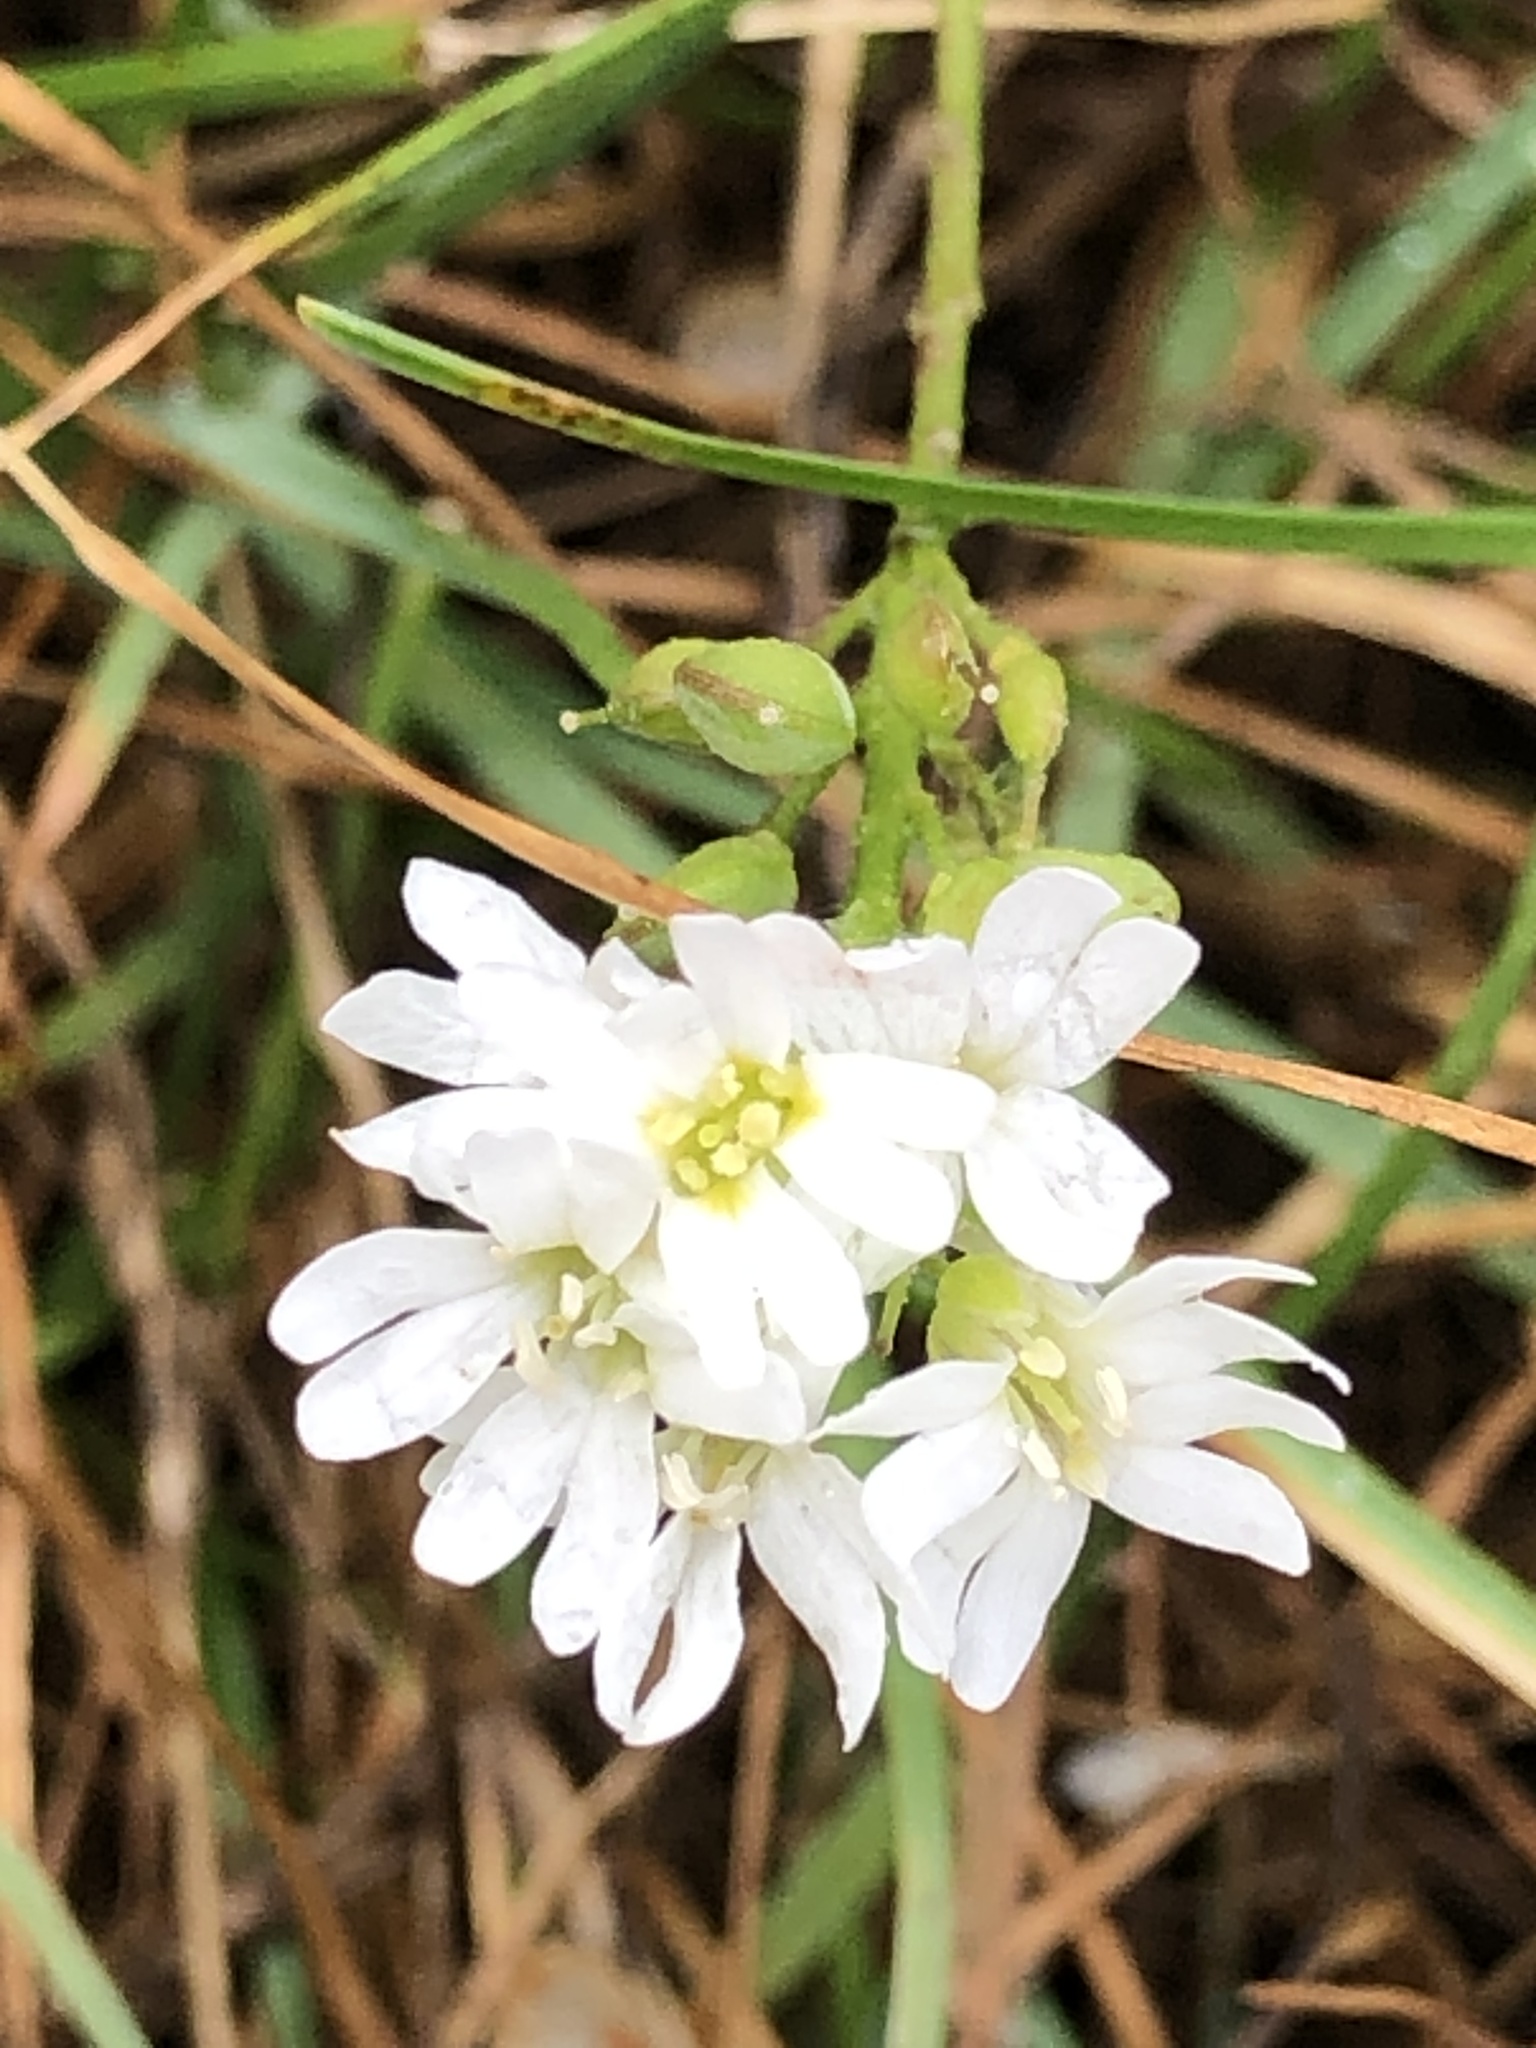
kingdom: Plantae
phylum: Tracheophyta
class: Magnoliopsida
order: Brassicales
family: Brassicaceae
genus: Berteroa
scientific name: Berteroa incana
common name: Hoary alison
